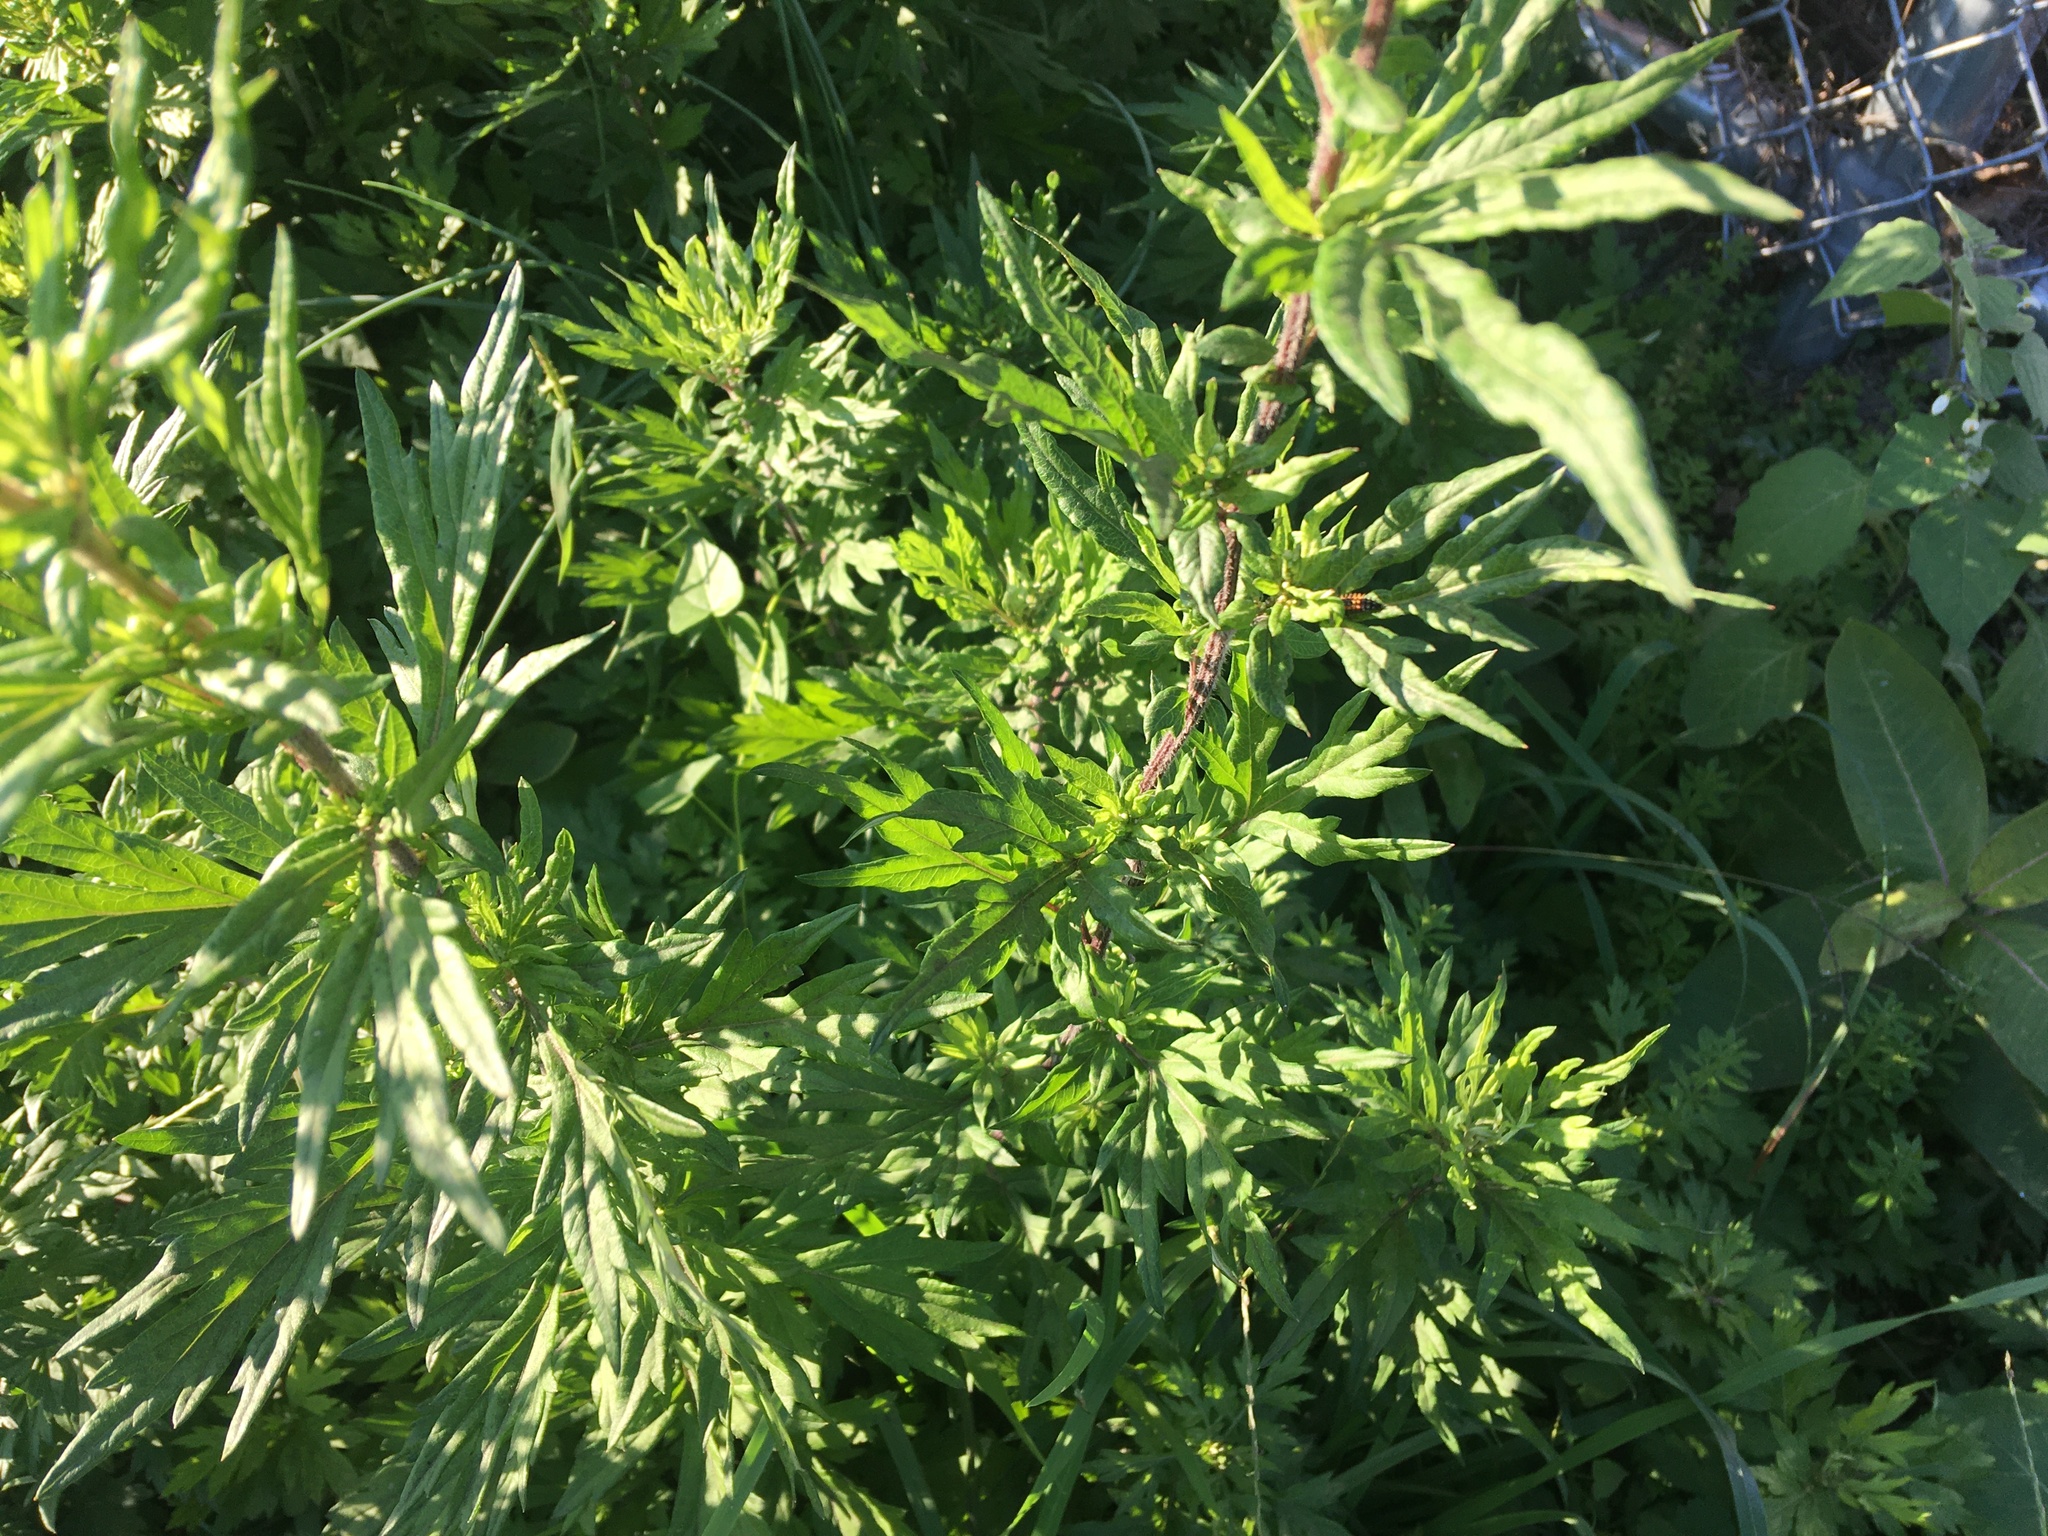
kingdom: Plantae
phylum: Tracheophyta
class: Magnoliopsida
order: Asterales
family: Asteraceae
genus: Artemisia
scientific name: Artemisia vulgaris
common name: Mugwort
